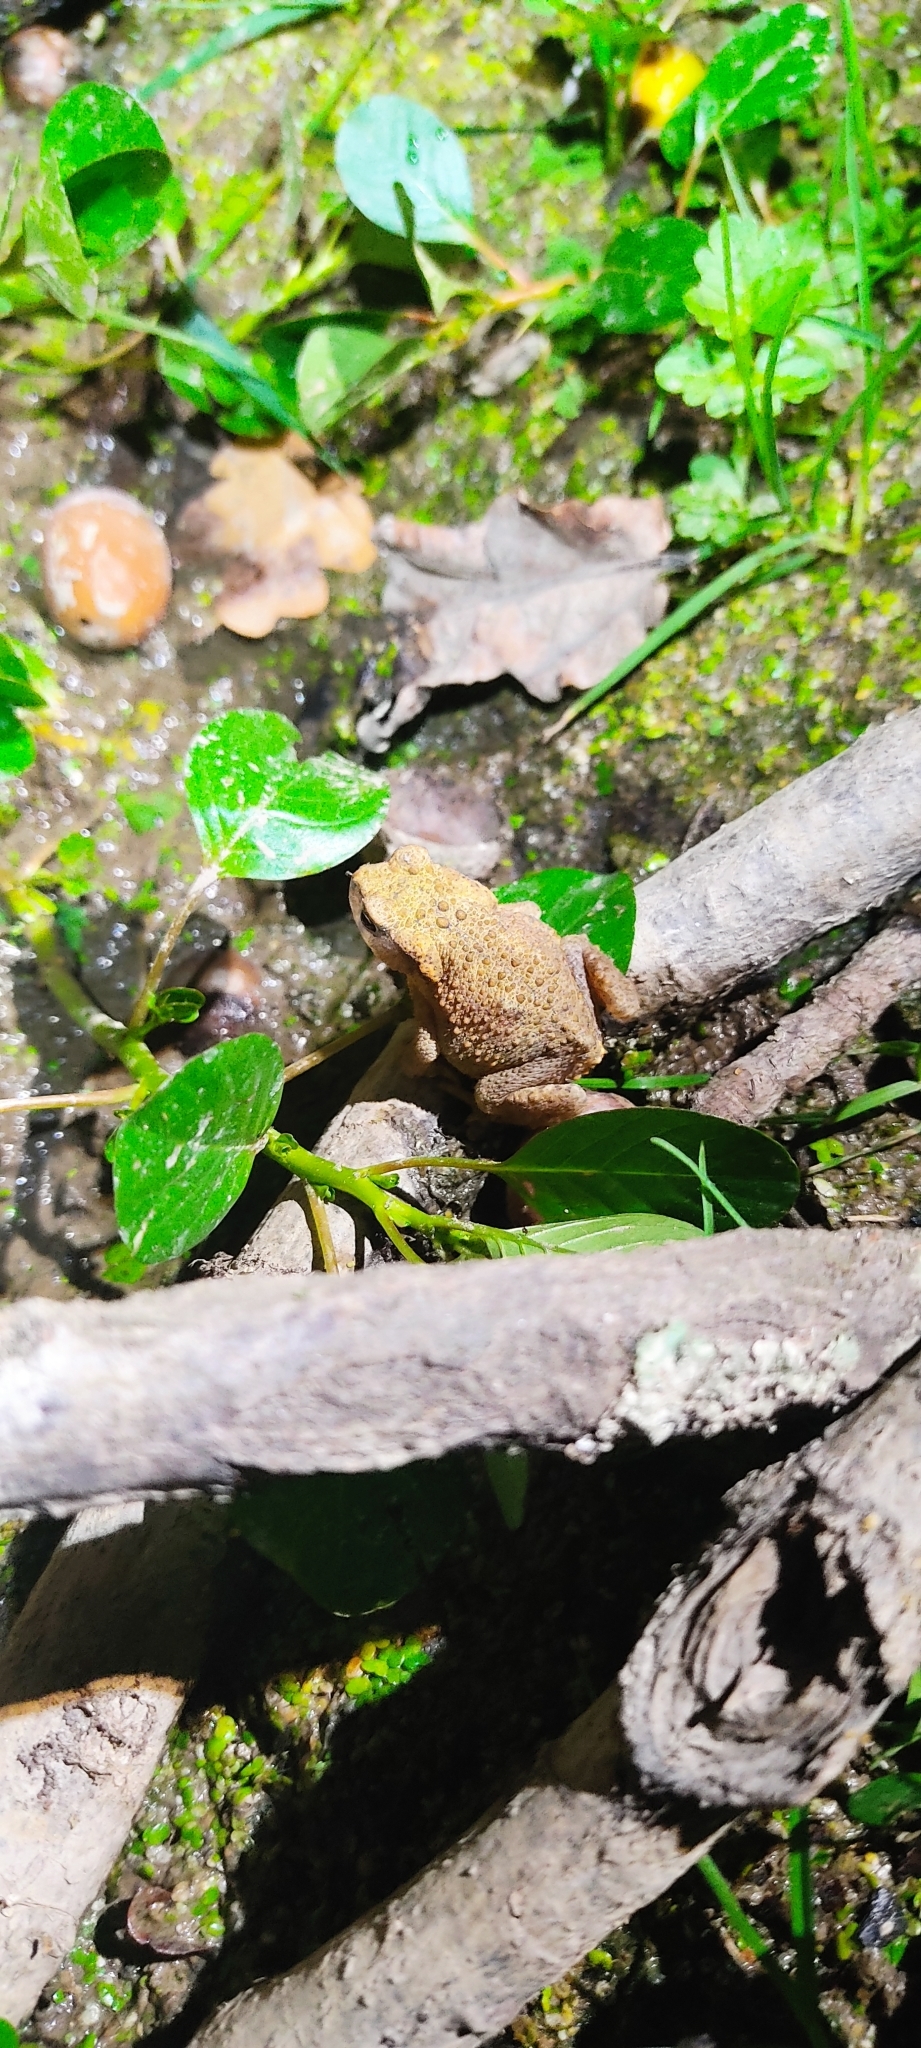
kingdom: Animalia
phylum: Chordata
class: Amphibia
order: Anura
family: Bufonidae
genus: Bufo
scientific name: Bufo spinosus
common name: Western common toad
